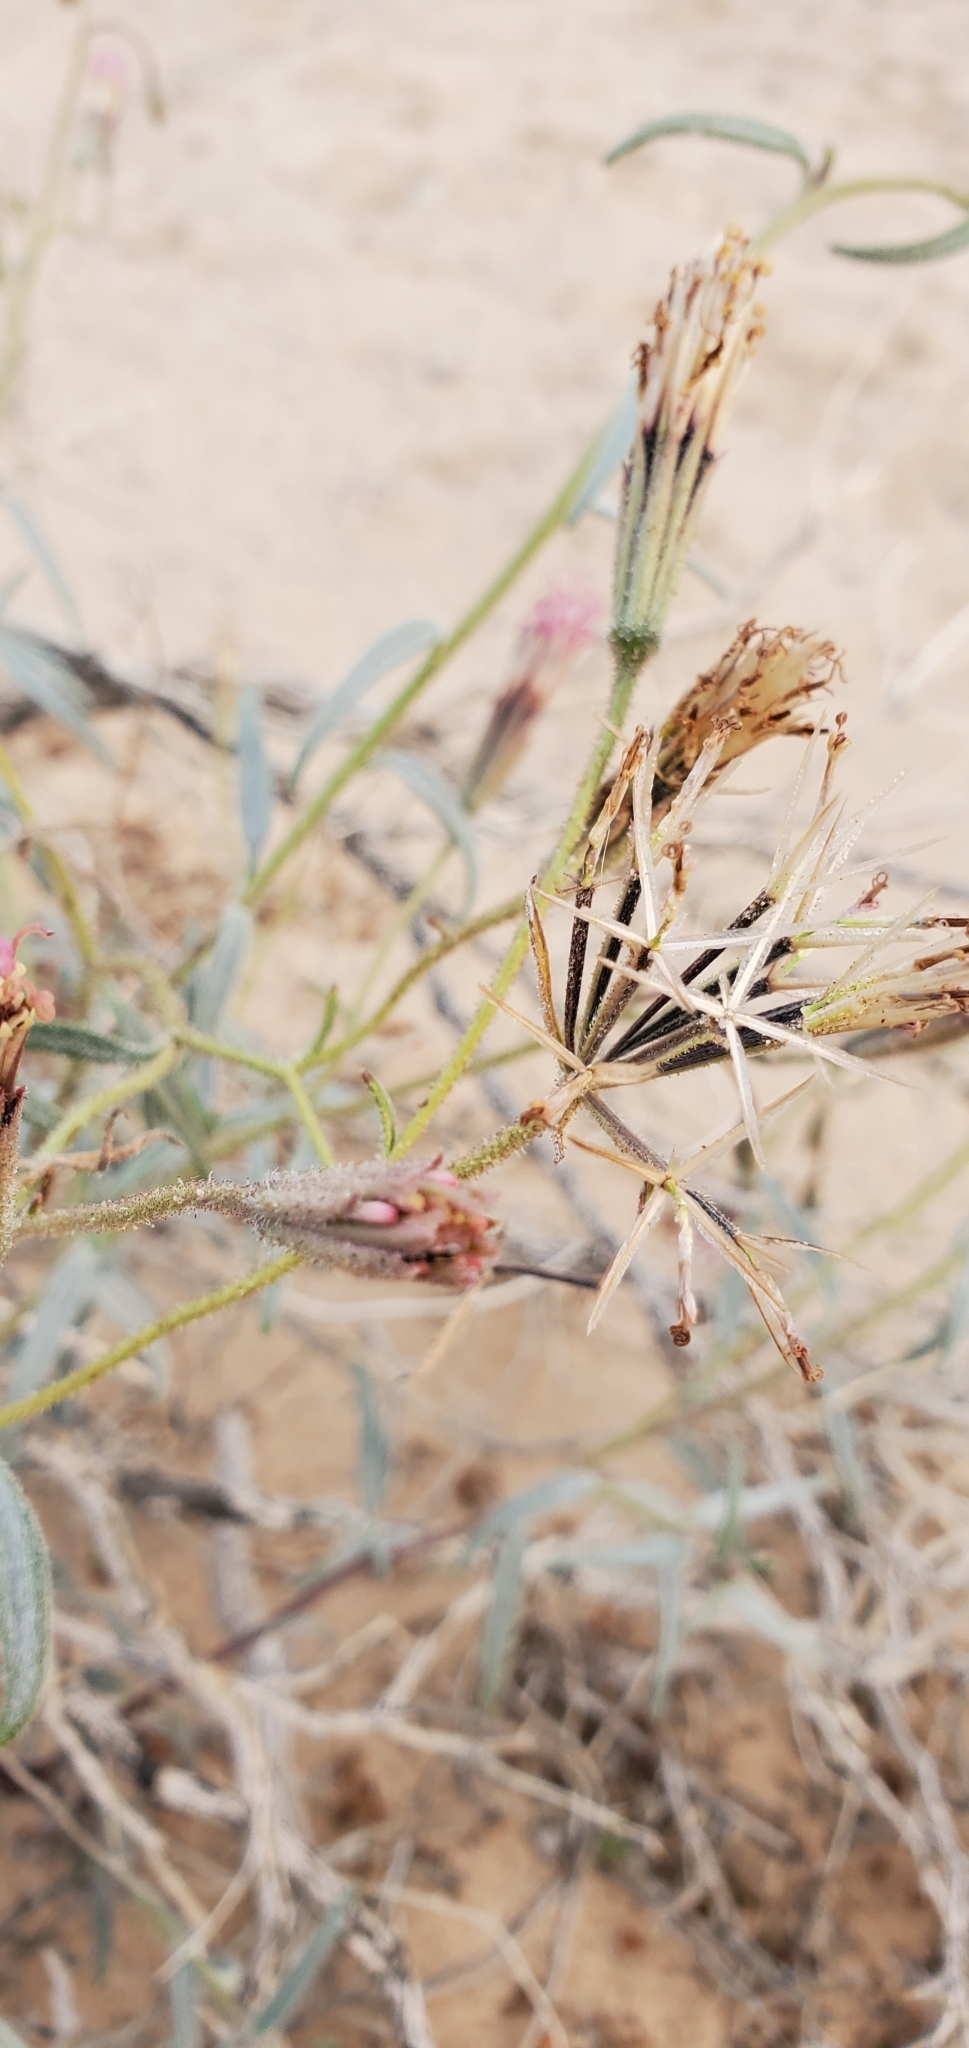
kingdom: Plantae
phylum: Tracheophyta
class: Magnoliopsida
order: Asterales
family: Asteraceae
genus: Palafoxia
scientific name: Palafoxia arida
